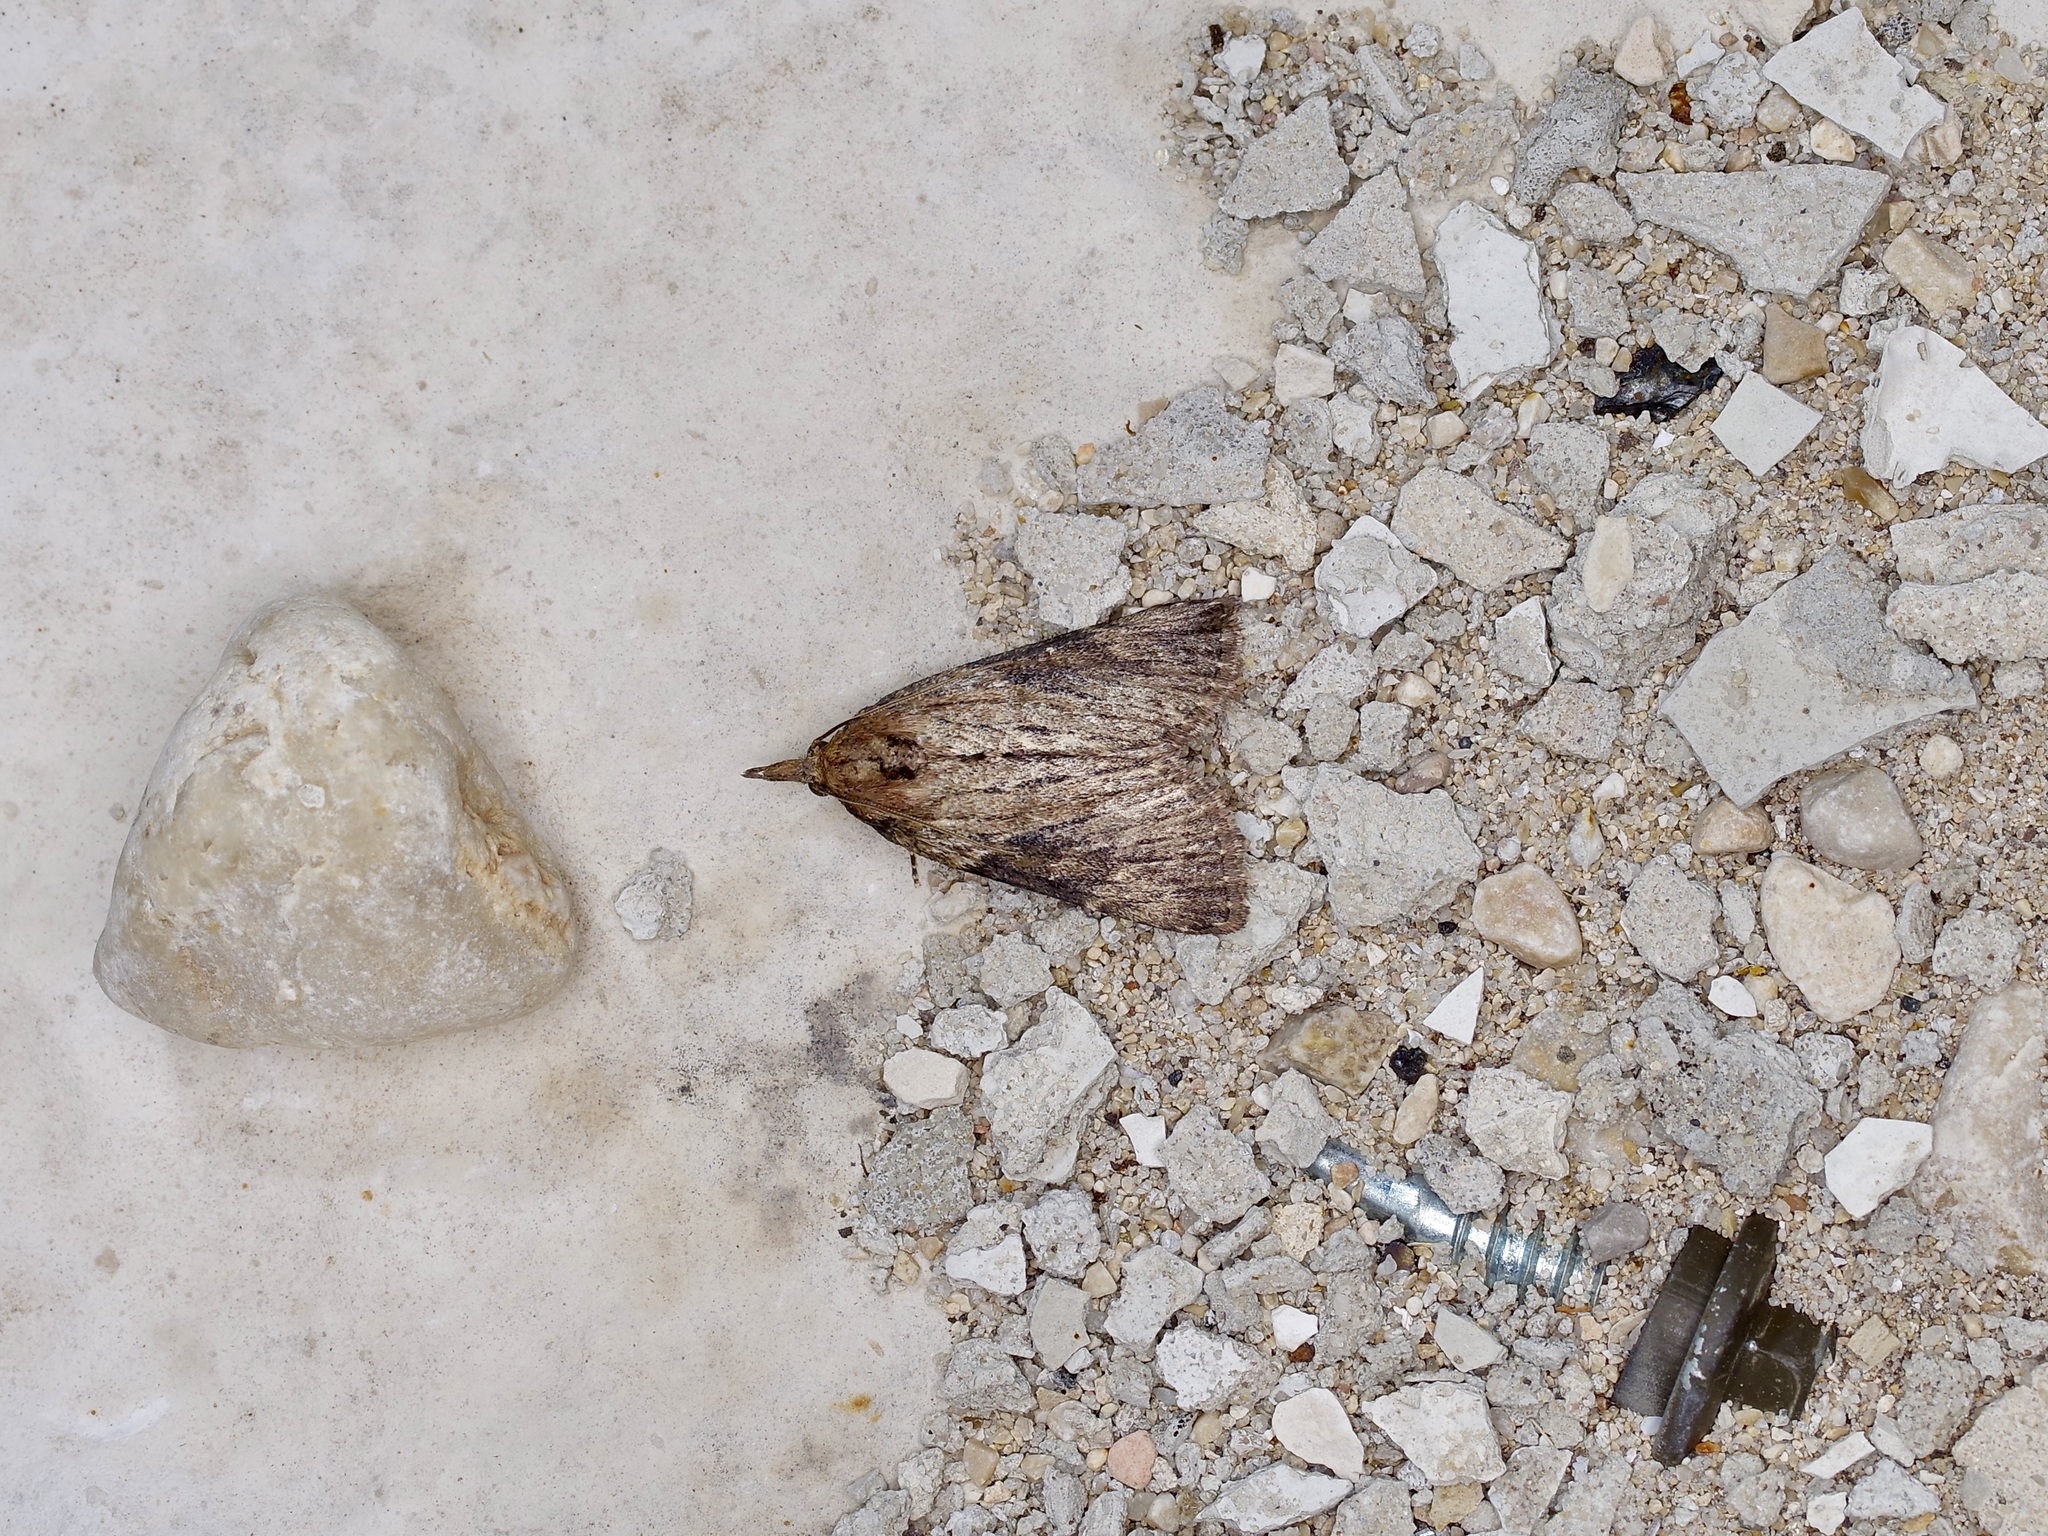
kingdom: Animalia
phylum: Arthropoda
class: Insecta
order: Lepidoptera
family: Pyralidae
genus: Omphalocera
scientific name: Omphalocera cariosa
